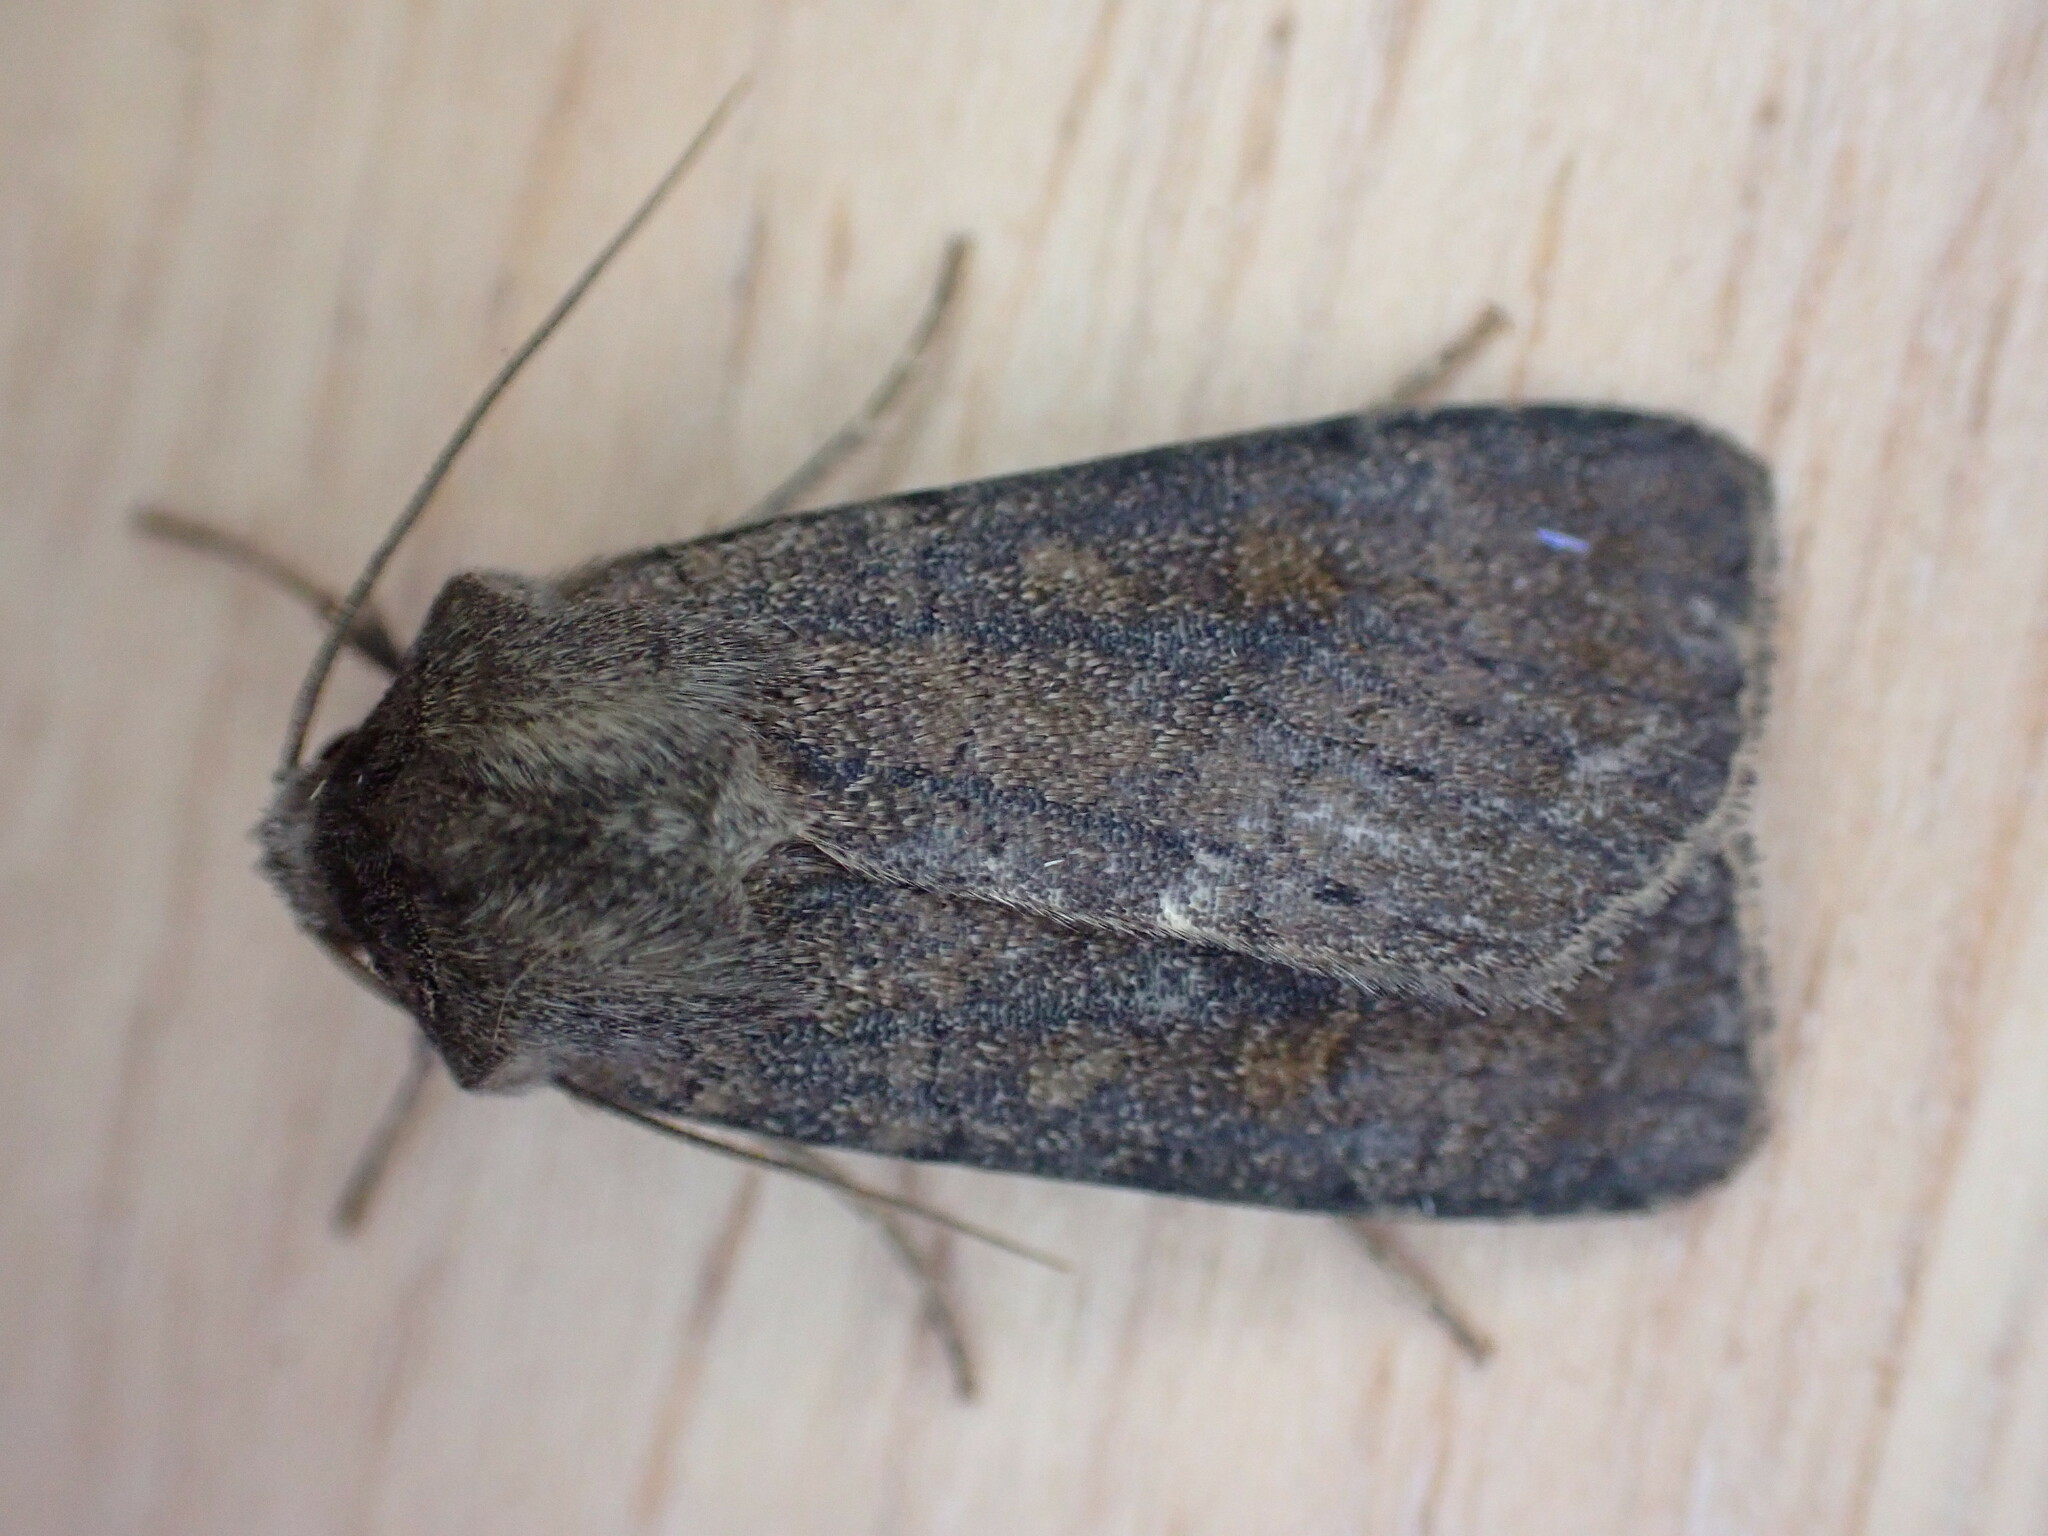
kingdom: Animalia
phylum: Arthropoda
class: Insecta
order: Lepidoptera
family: Noctuidae
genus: Xestia
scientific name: Xestia xanthographa
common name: Square-spot rustic
